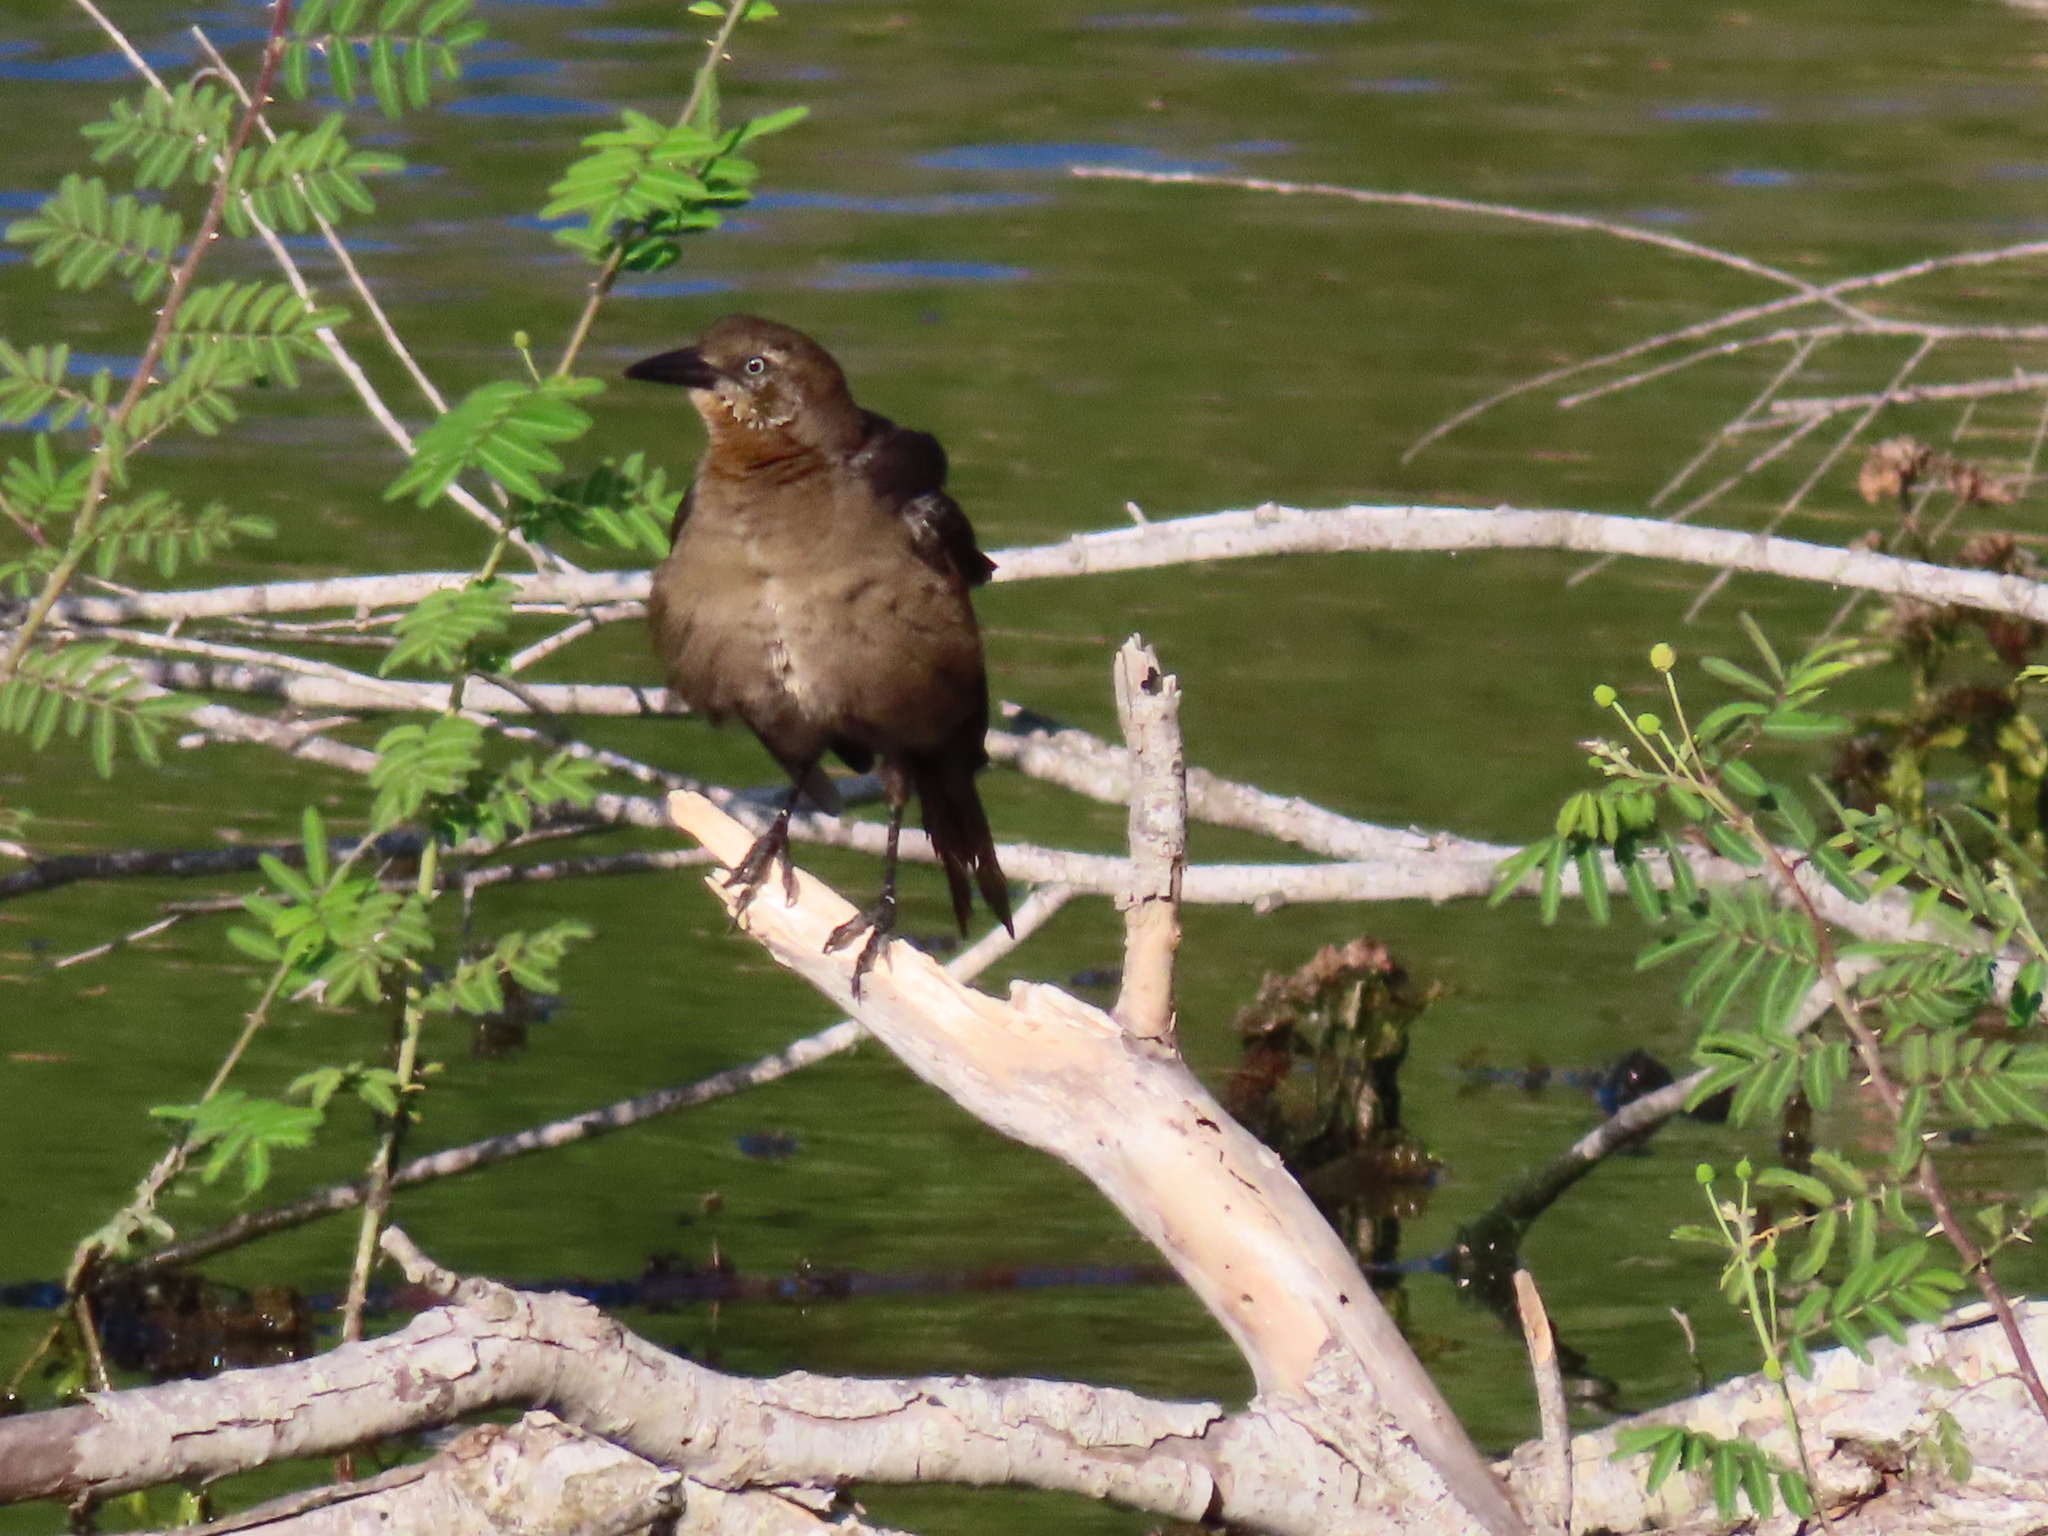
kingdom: Animalia
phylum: Chordata
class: Aves
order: Passeriformes
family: Icteridae
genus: Quiscalus
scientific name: Quiscalus mexicanus
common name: Great-tailed grackle
